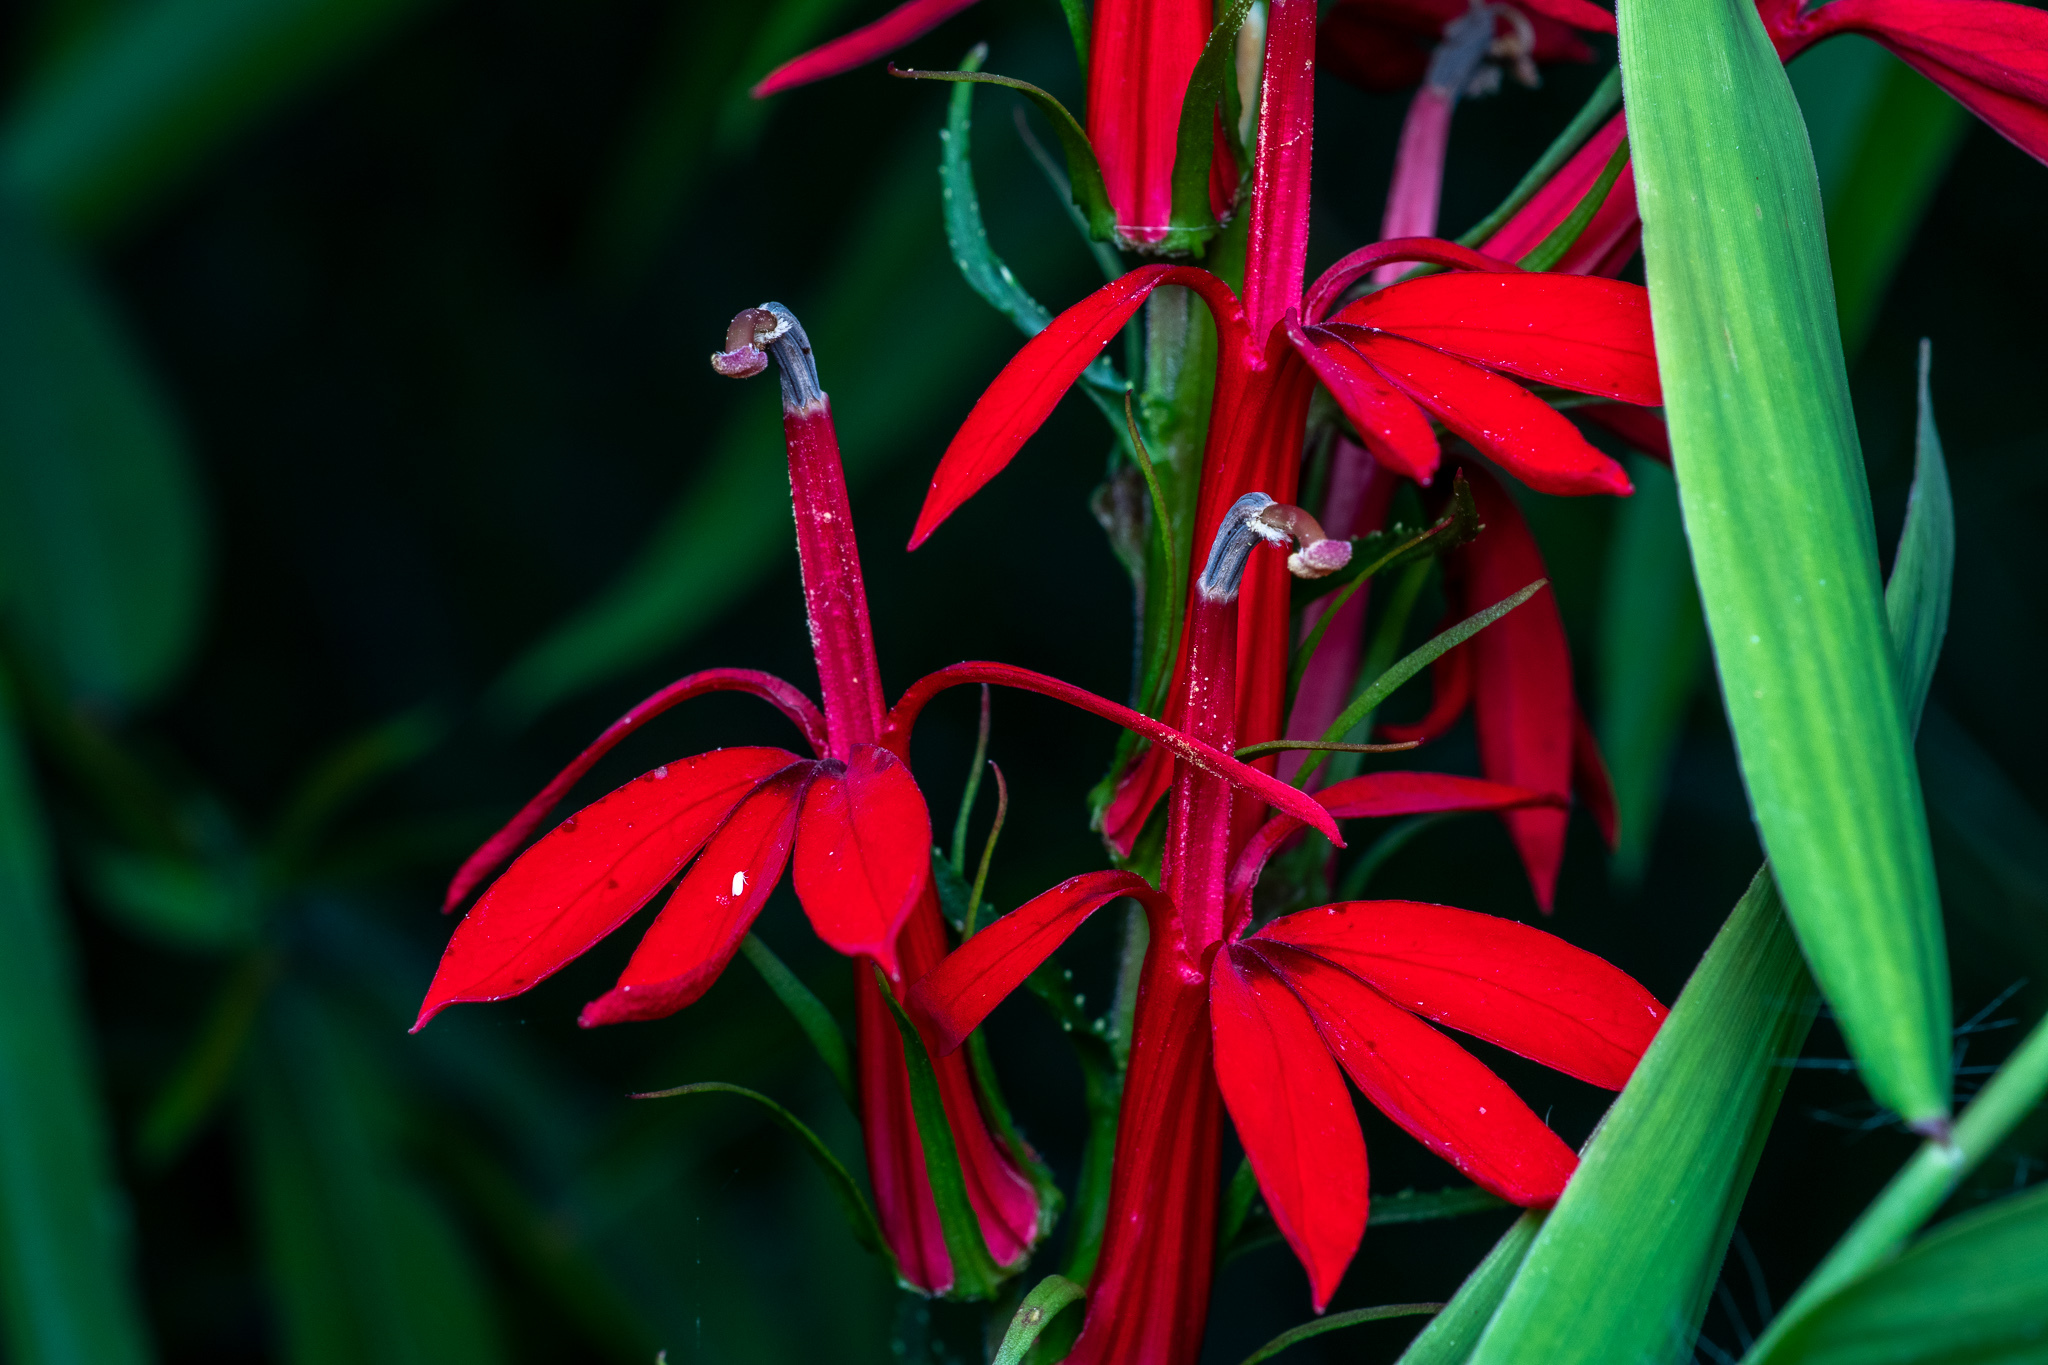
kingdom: Plantae
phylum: Tracheophyta
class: Magnoliopsida
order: Asterales
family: Campanulaceae
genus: Lobelia
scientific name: Lobelia cardinalis
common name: Cardinal flower
